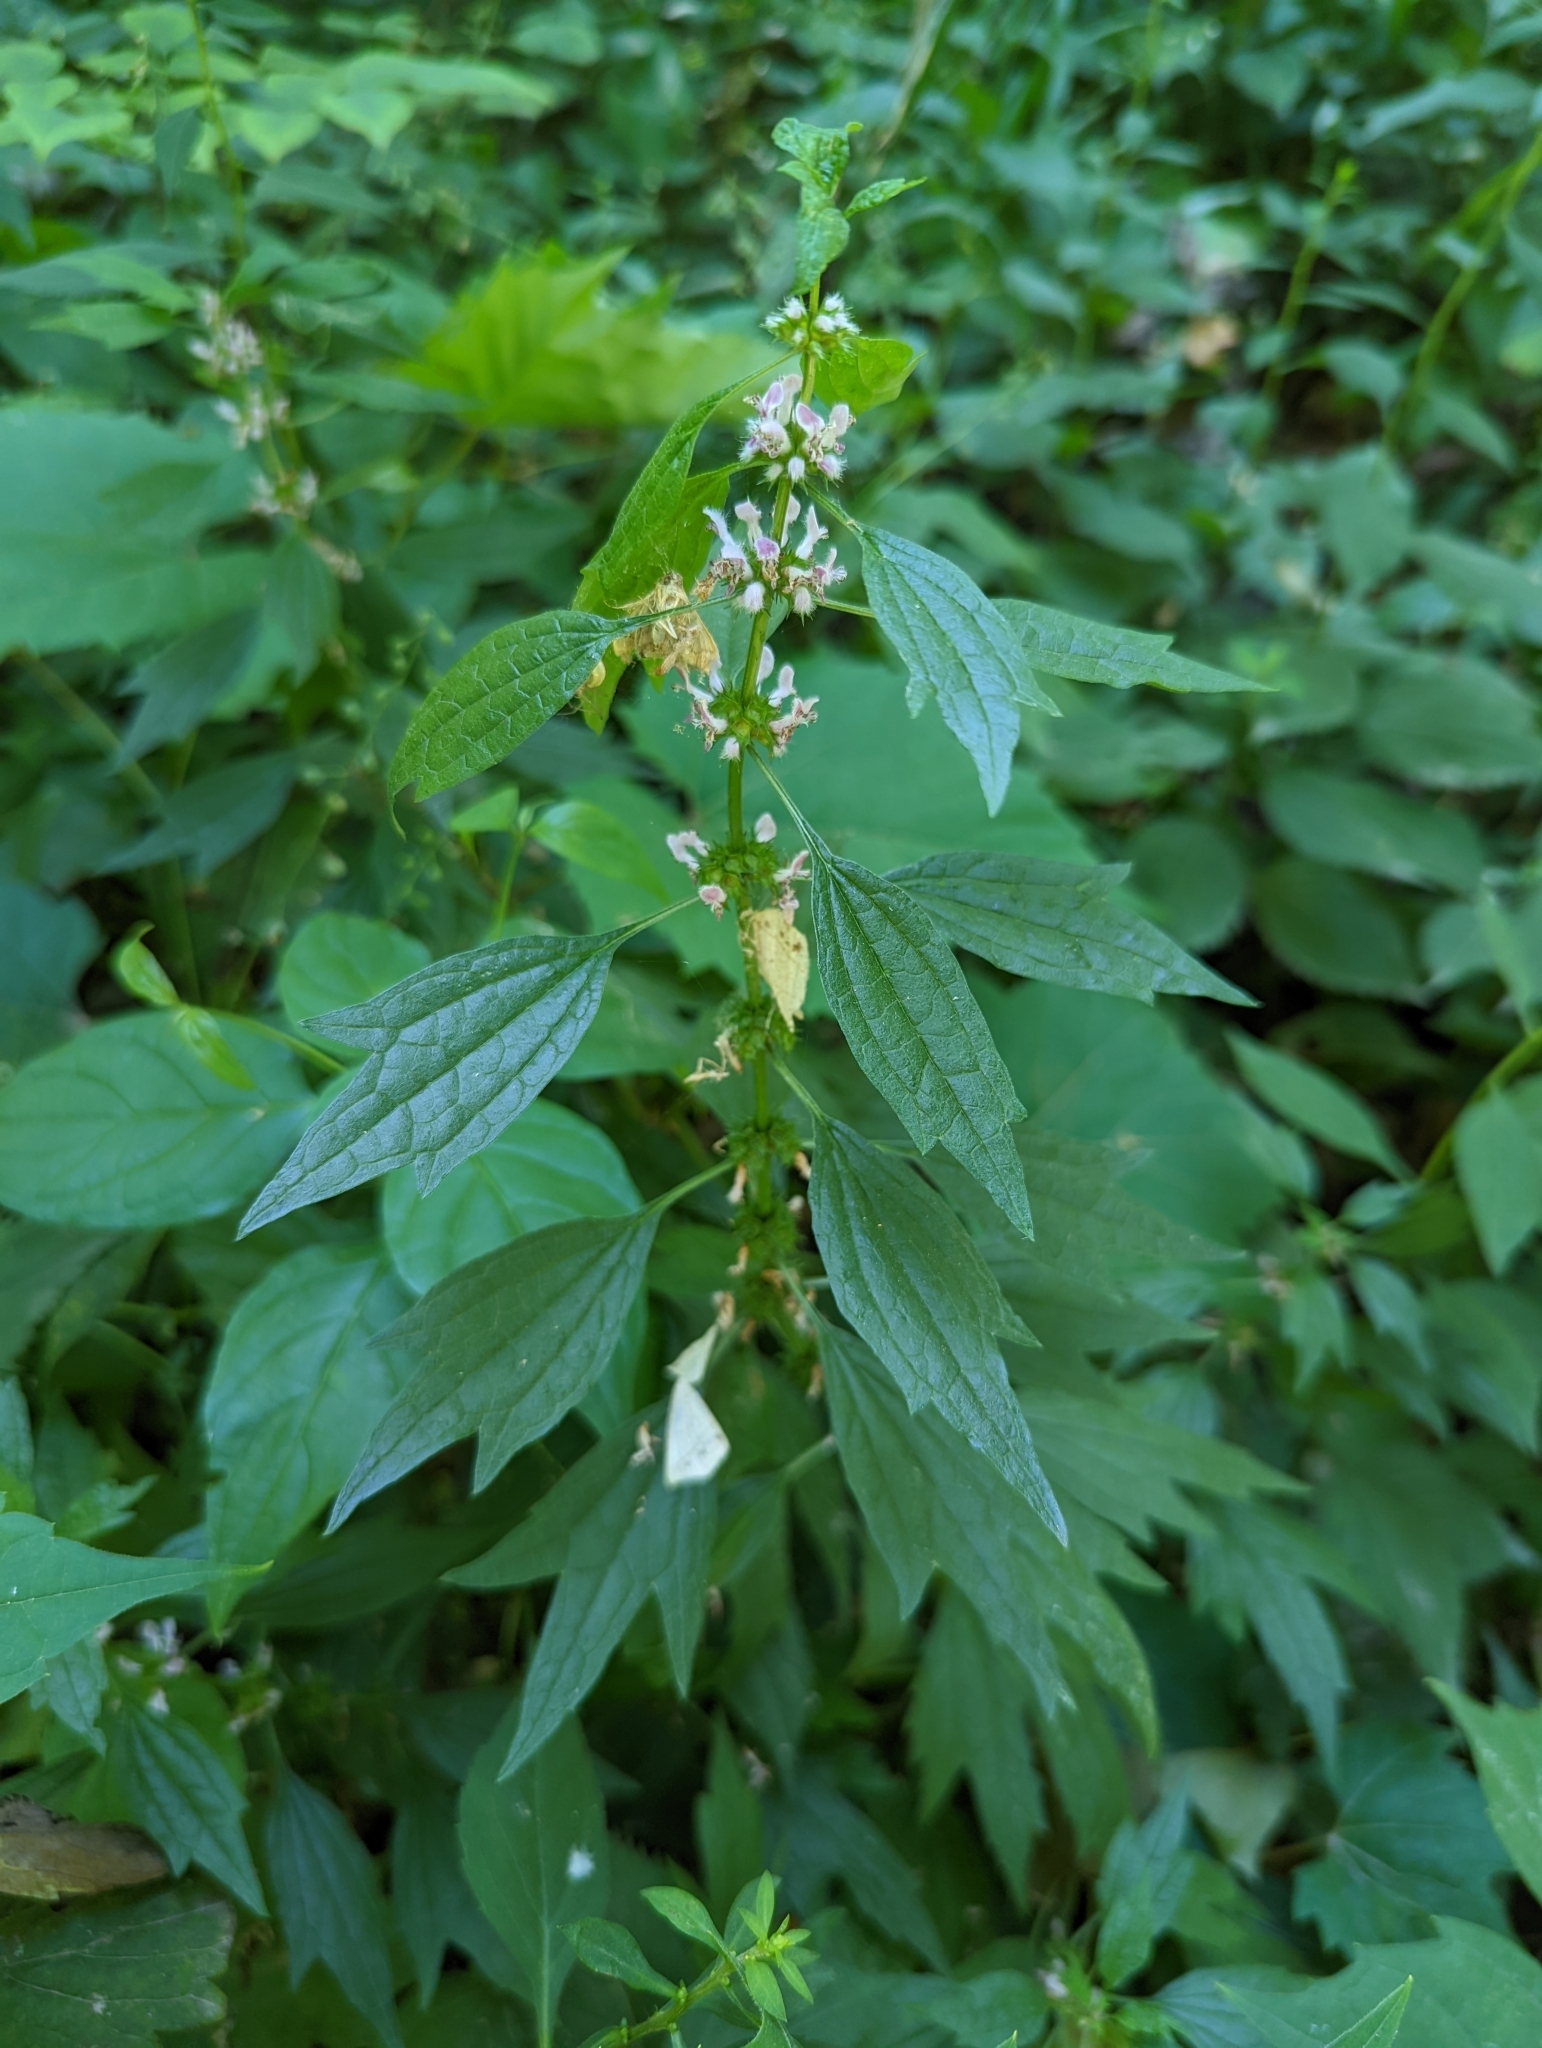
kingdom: Plantae
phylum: Tracheophyta
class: Magnoliopsida
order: Lamiales
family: Lamiaceae
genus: Leonurus
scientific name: Leonurus cardiaca
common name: Motherwort
